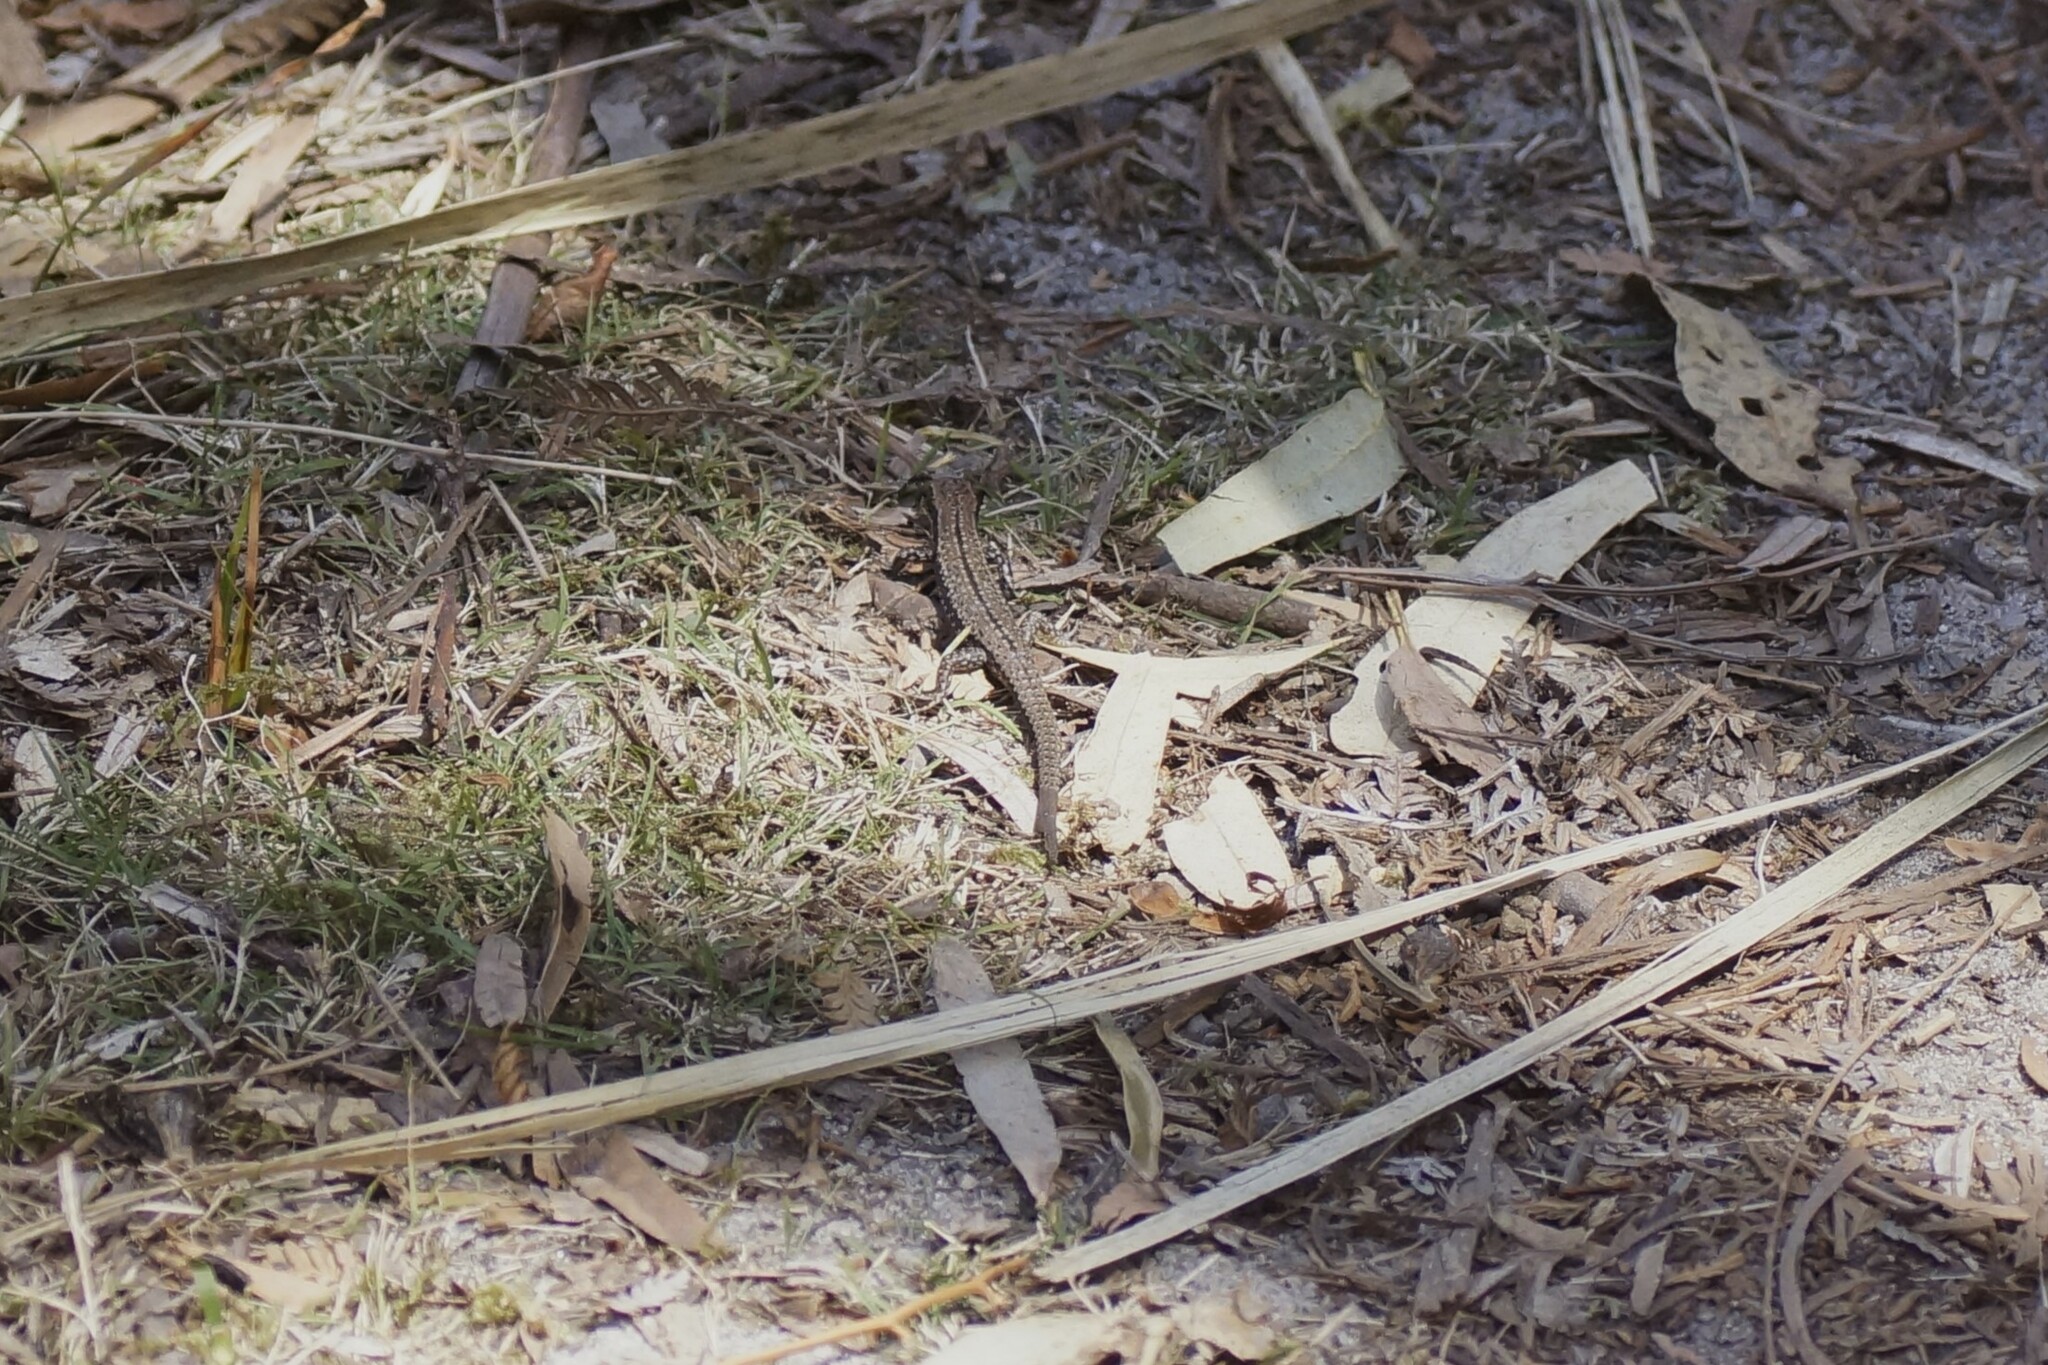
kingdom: Animalia
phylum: Chordata
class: Squamata
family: Scincidae
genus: Carinascincus
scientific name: Carinascincus pretiosus
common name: Agile cool-skink
